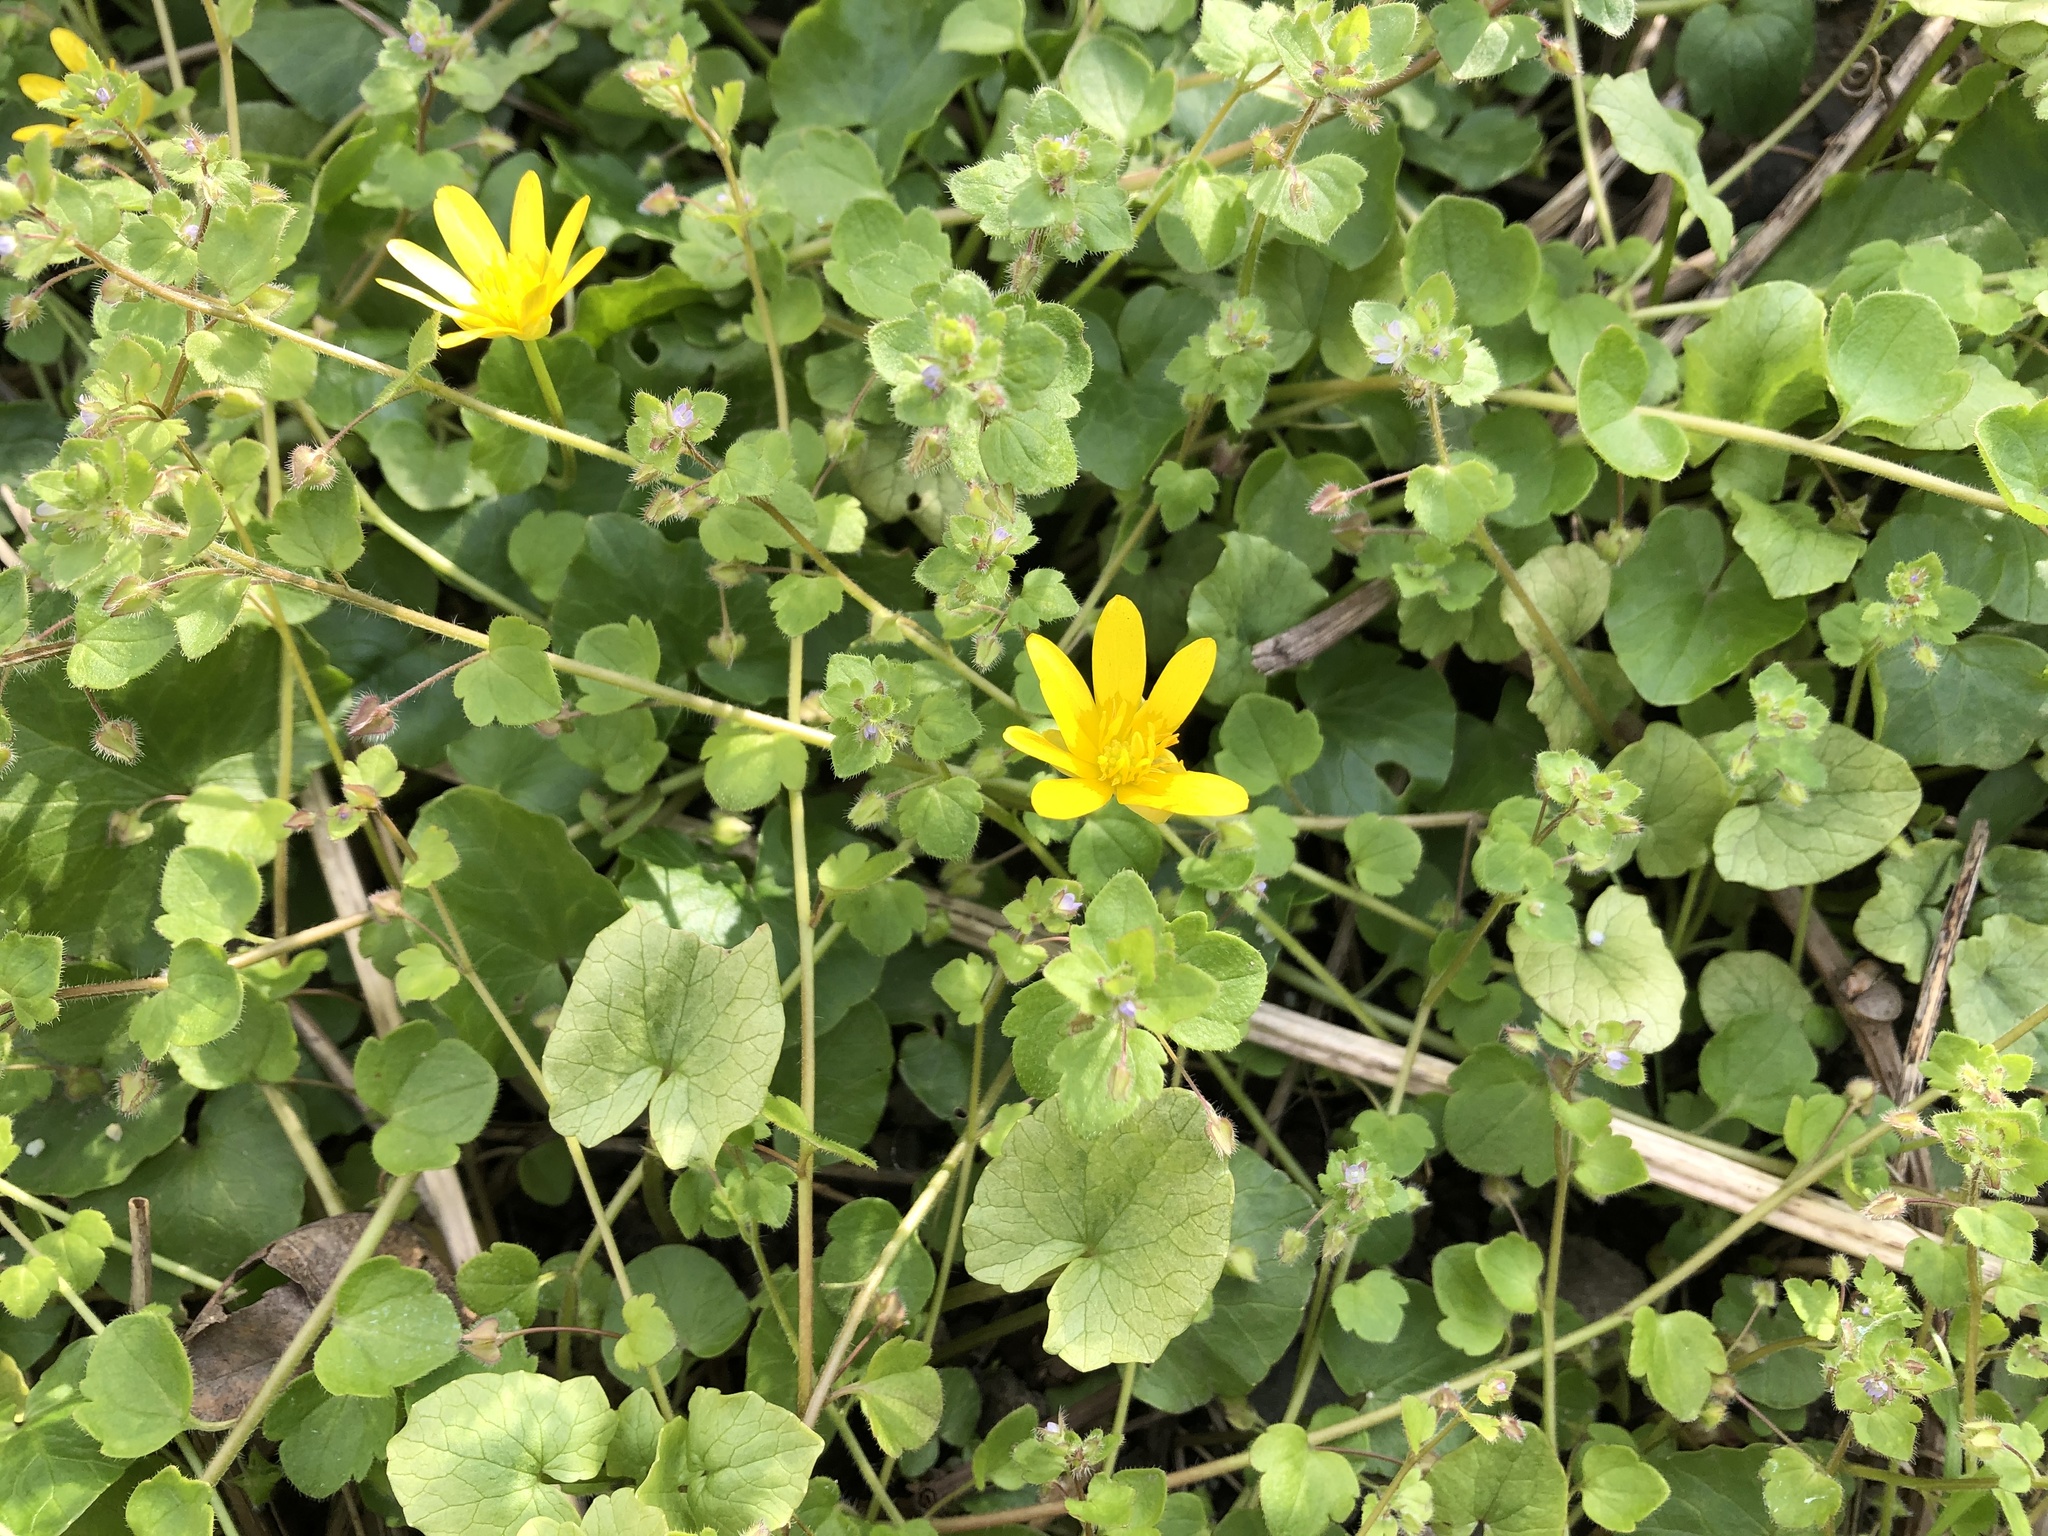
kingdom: Plantae
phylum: Tracheophyta
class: Magnoliopsida
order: Ranunculales
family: Ranunculaceae
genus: Ficaria
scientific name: Ficaria verna
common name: Lesser celandine
